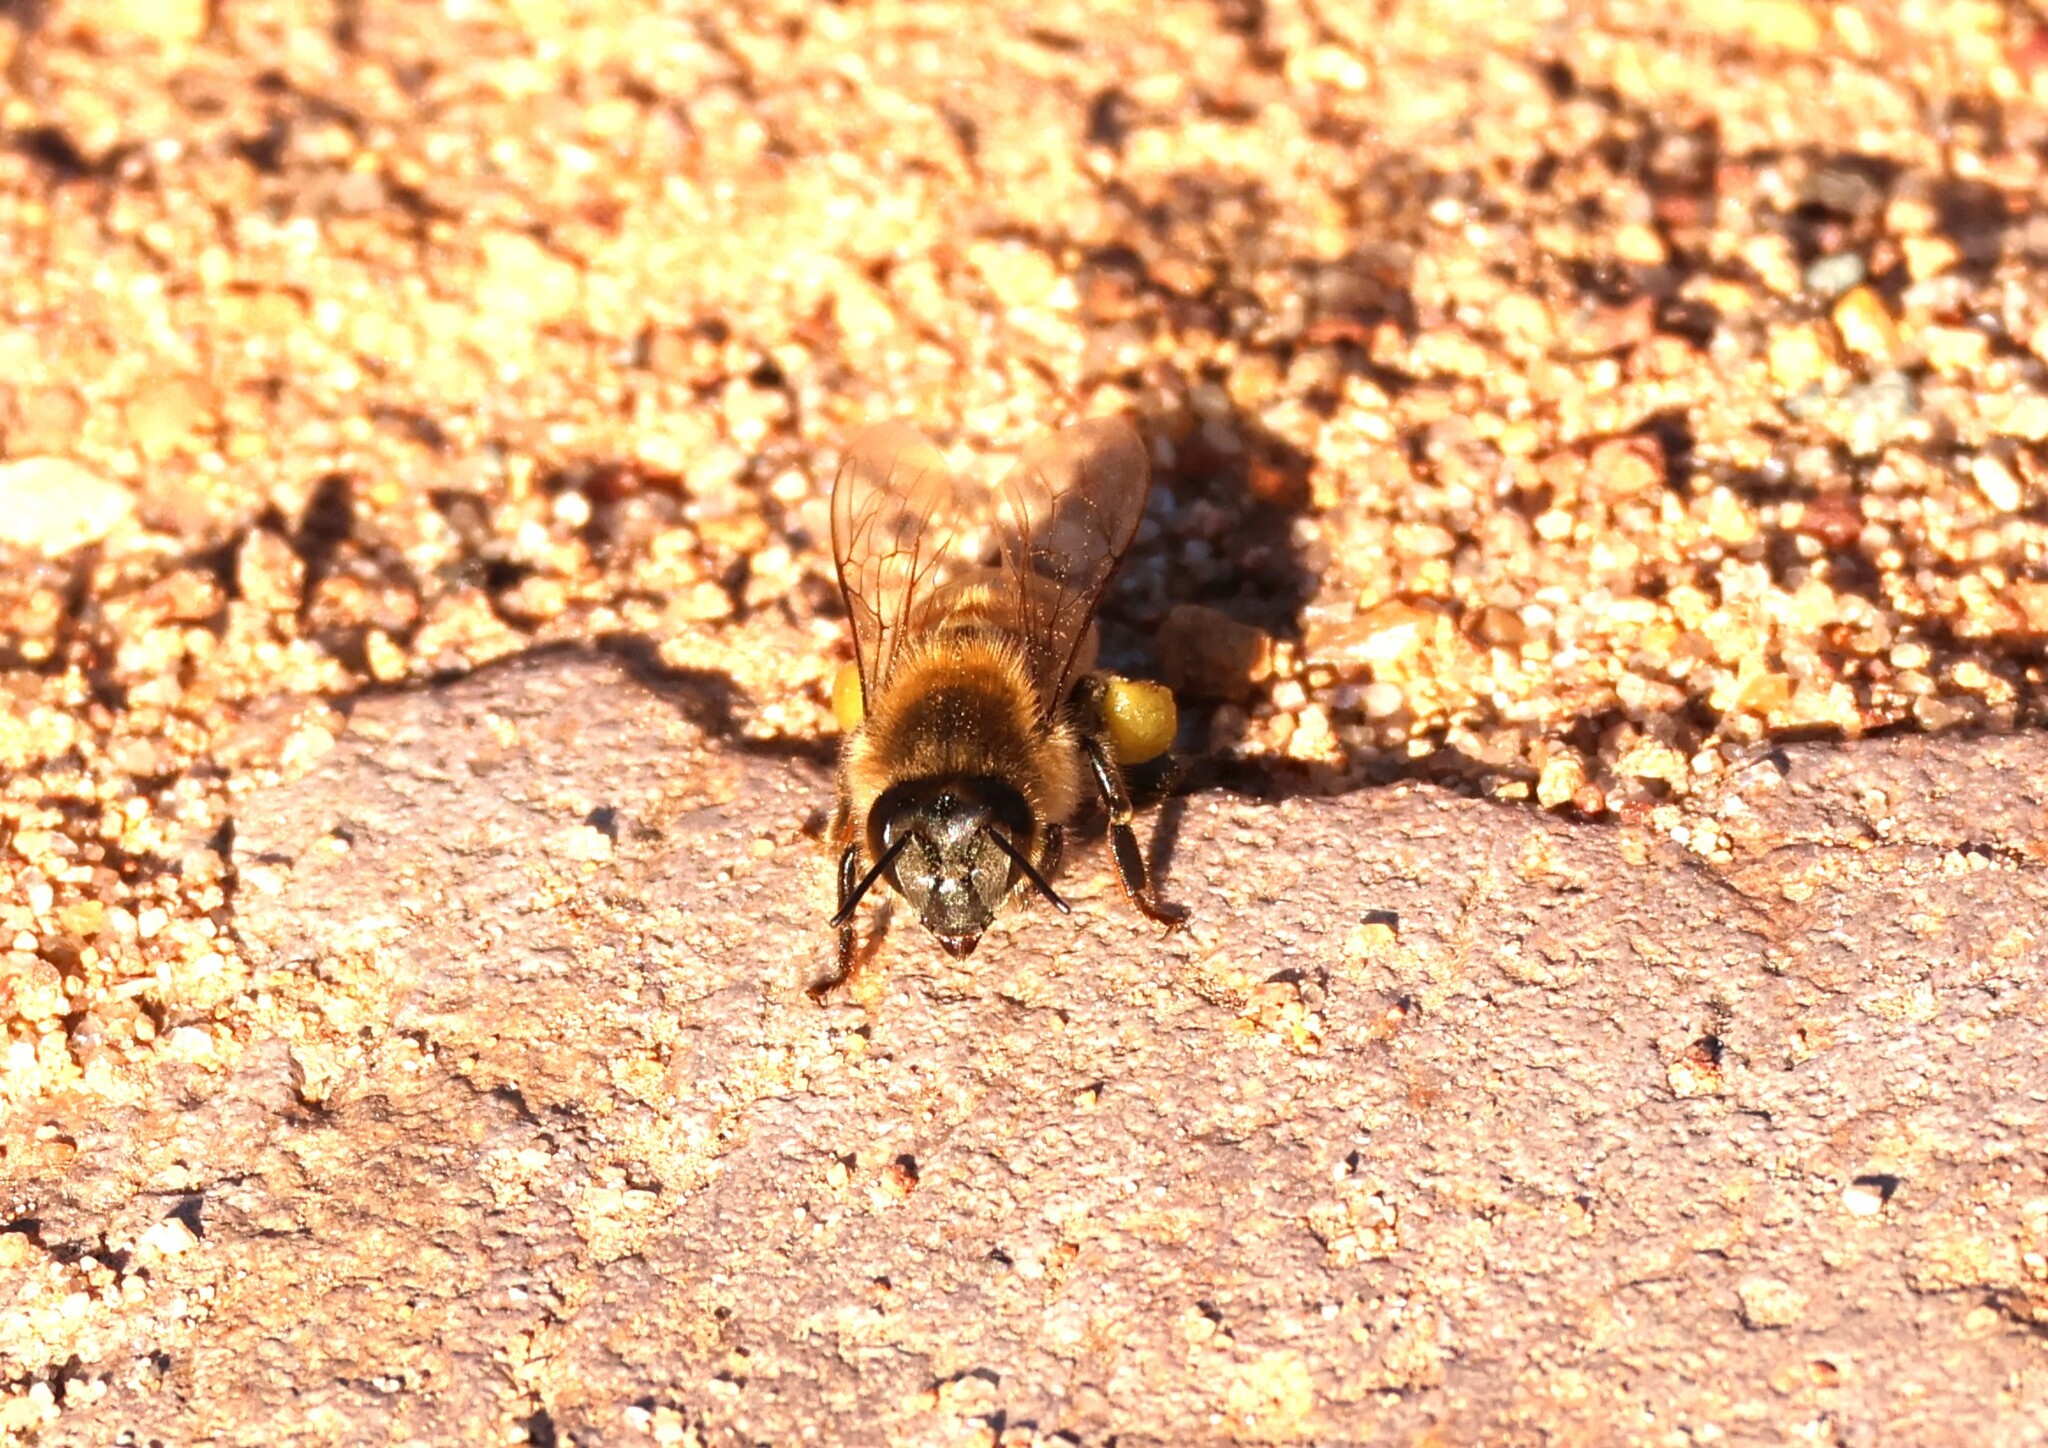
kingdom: Animalia
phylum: Arthropoda
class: Insecta
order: Hymenoptera
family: Apidae
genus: Apis
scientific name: Apis mellifera
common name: Honey bee
